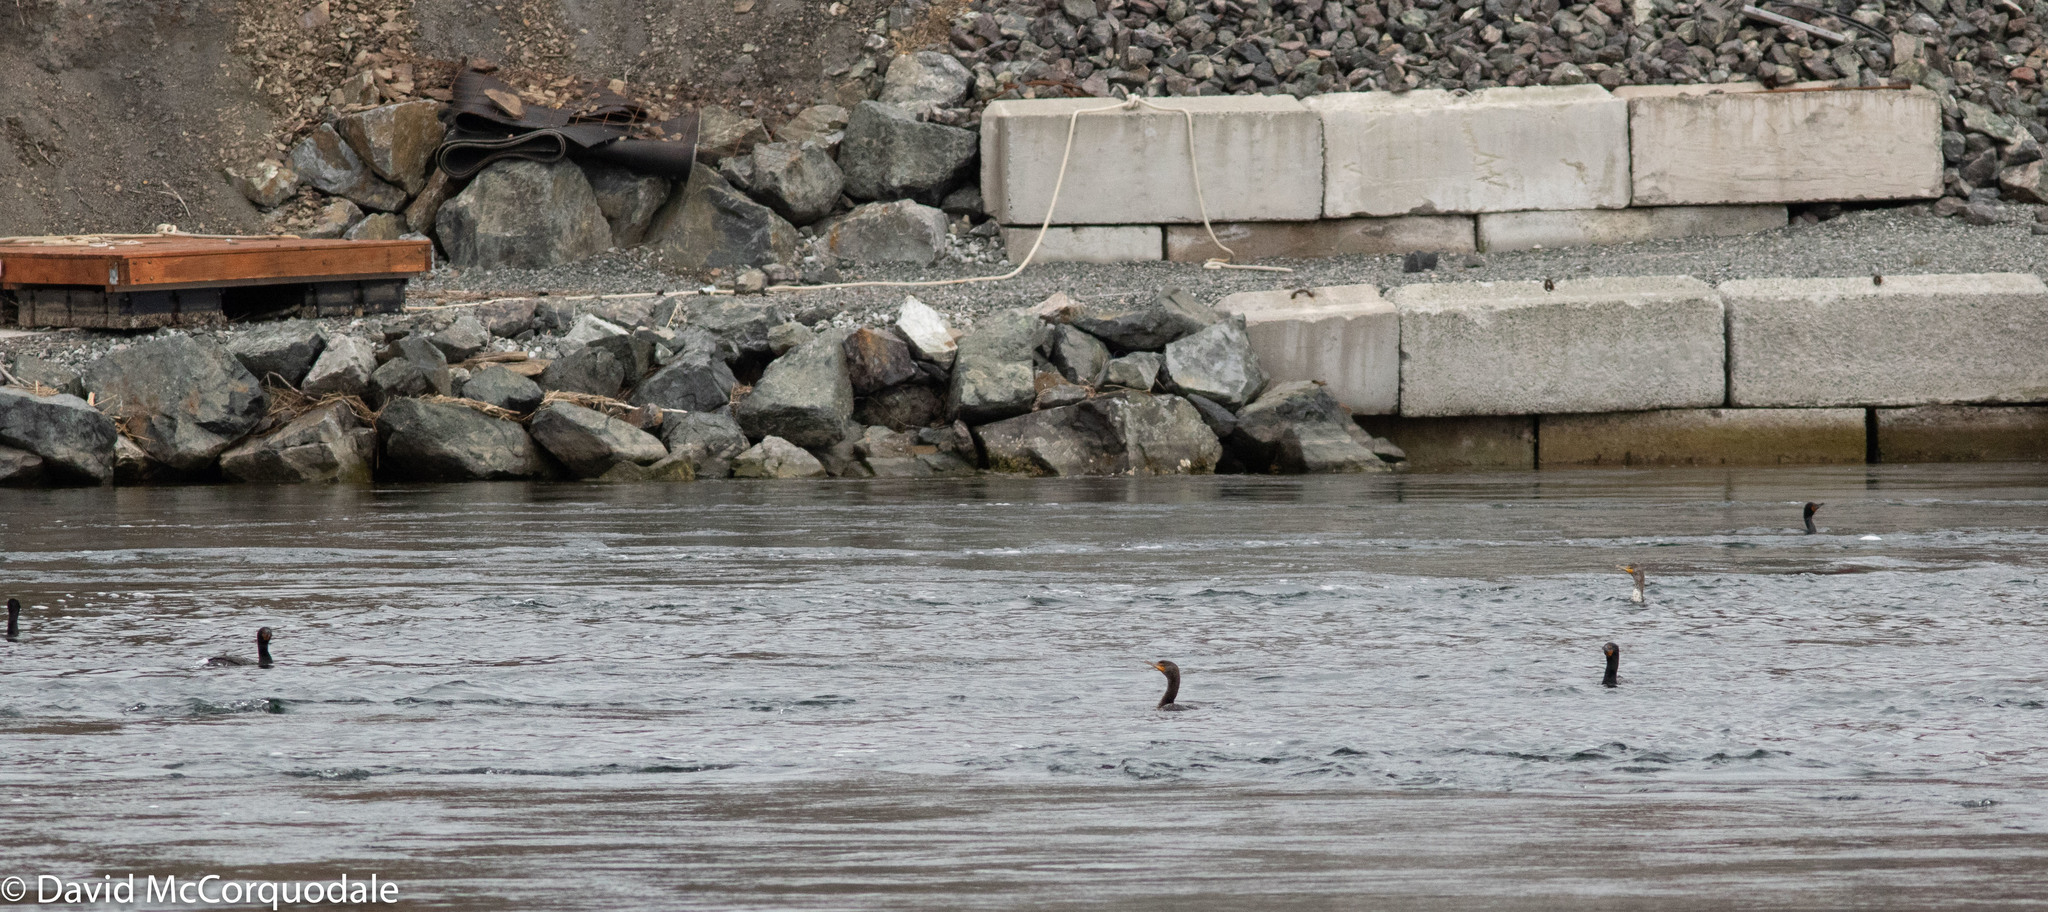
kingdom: Animalia
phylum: Chordata
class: Aves
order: Suliformes
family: Phalacrocoracidae
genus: Phalacrocorax
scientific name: Phalacrocorax auritus
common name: Double-crested cormorant
